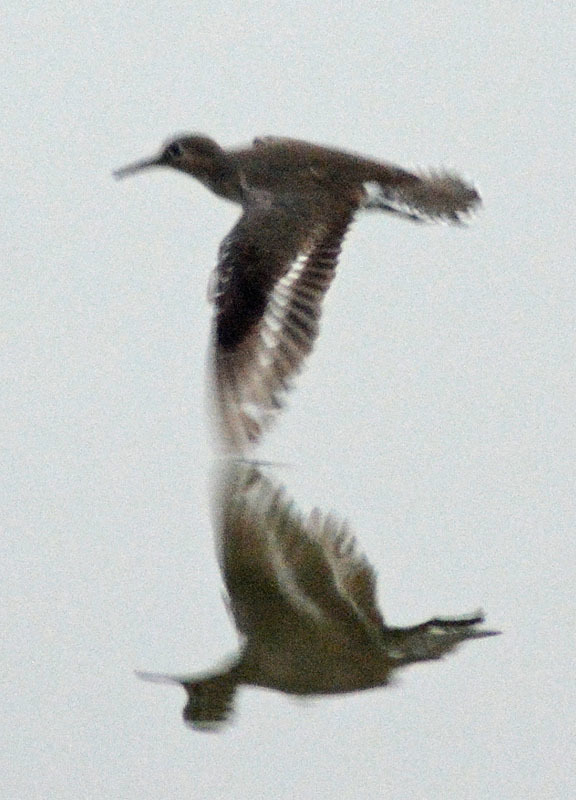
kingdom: Animalia
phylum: Chordata
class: Aves
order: Charadriiformes
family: Scolopacidae
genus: Actitis
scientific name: Actitis macularius
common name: Spotted sandpiper
